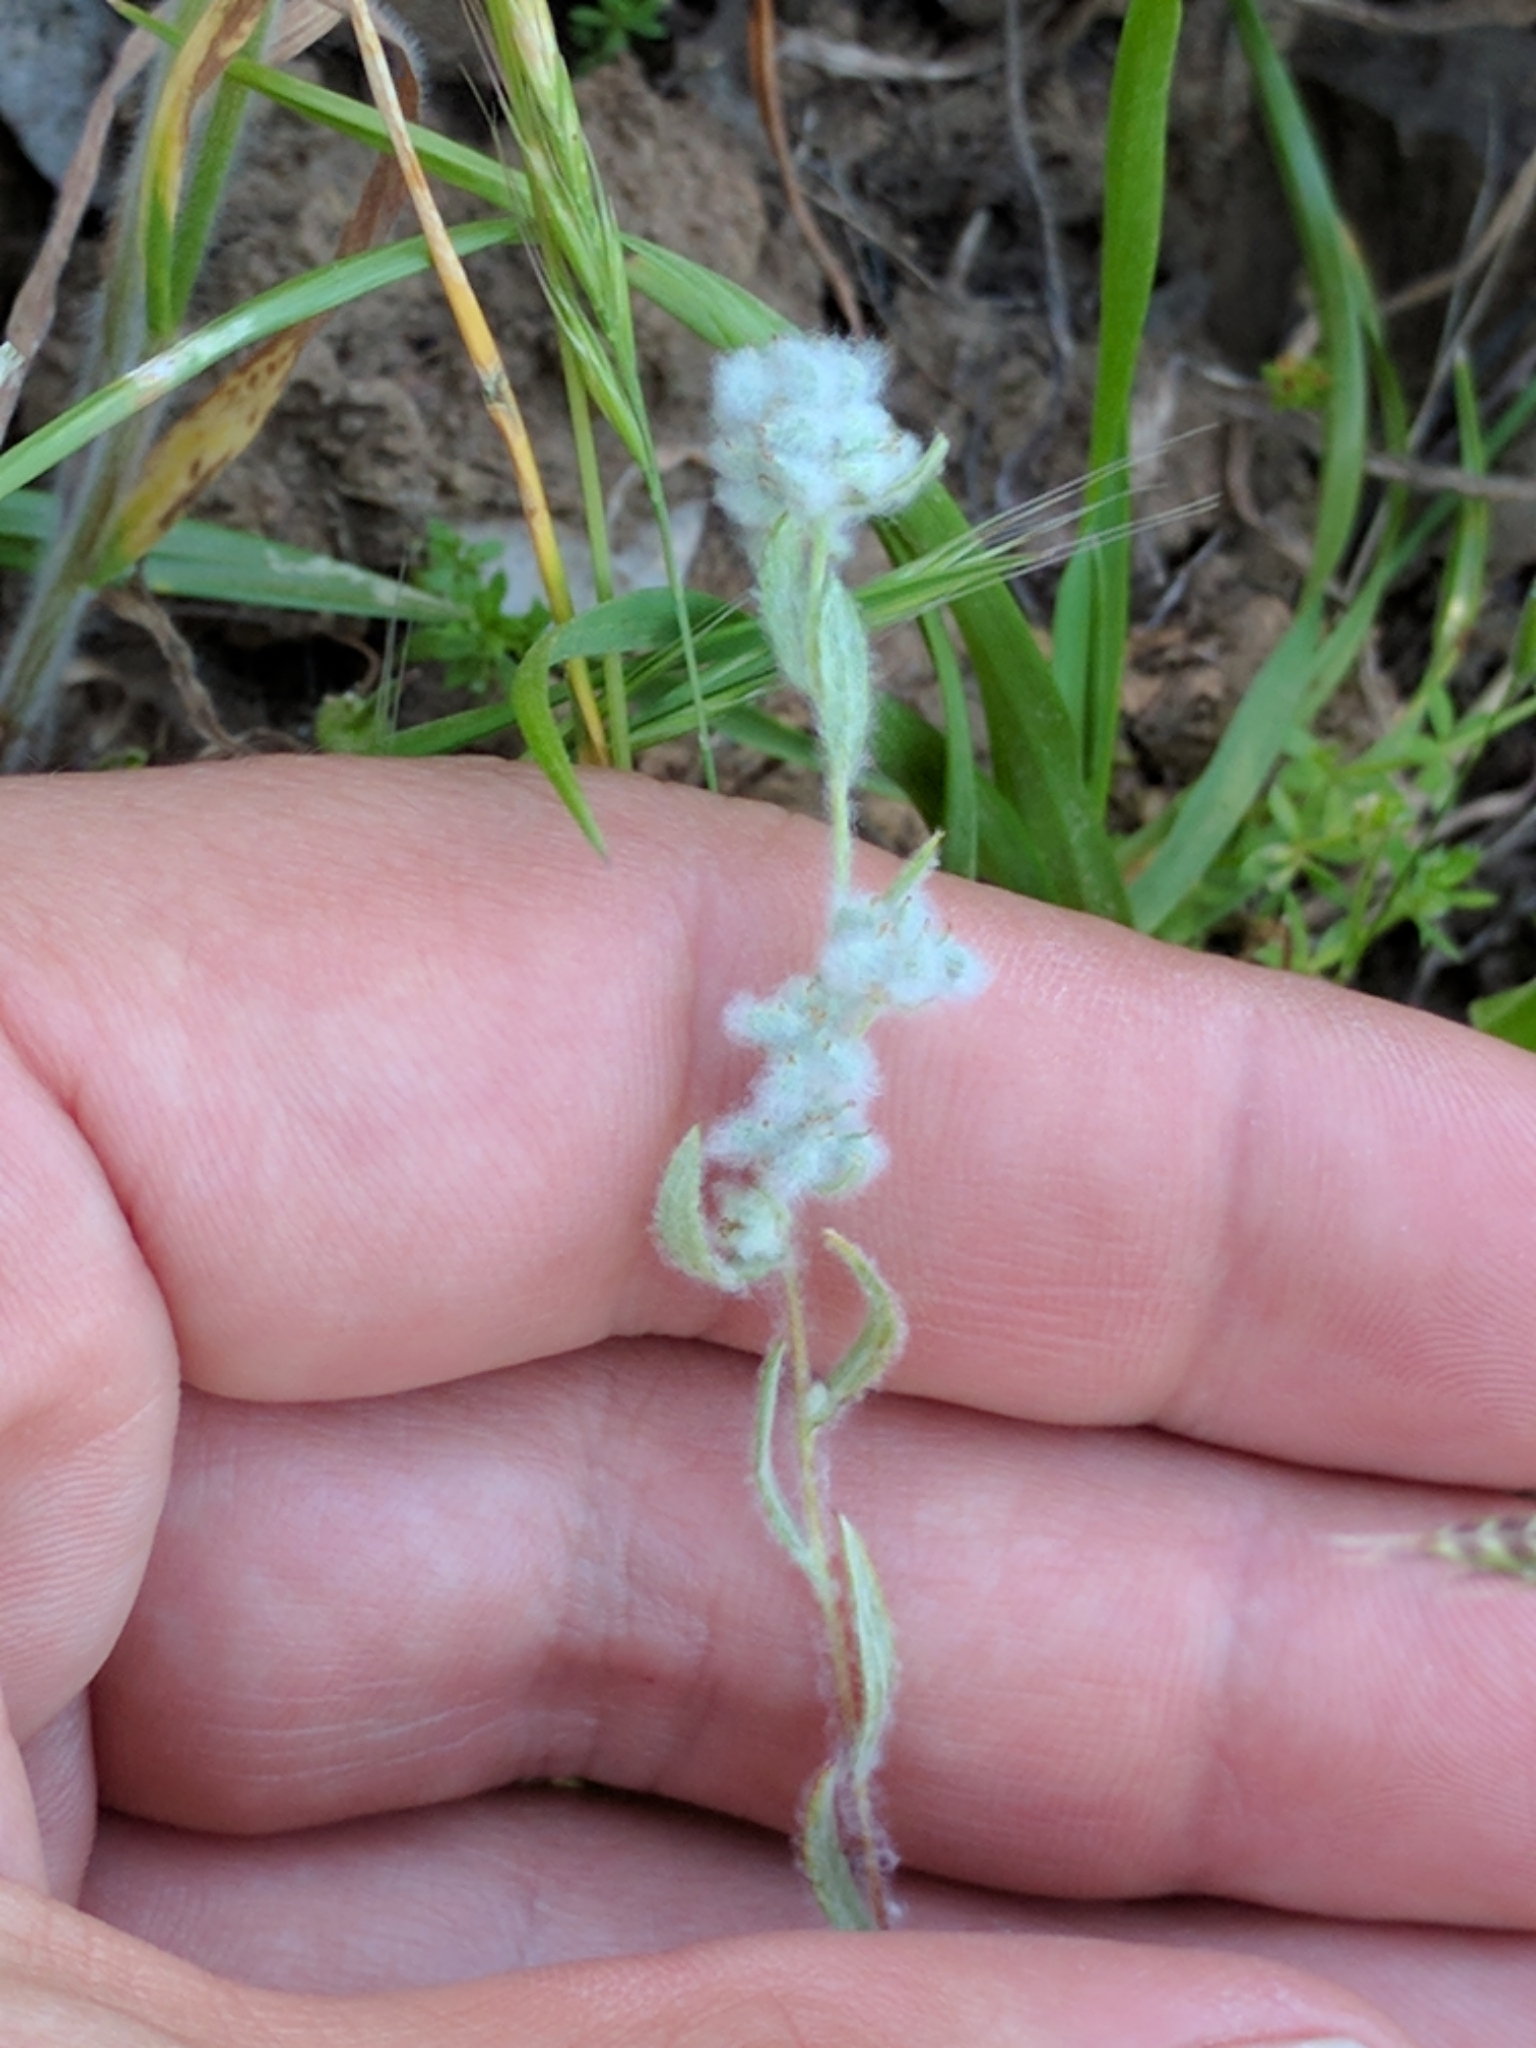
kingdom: Plantae
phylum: Tracheophyta
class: Magnoliopsida
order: Asterales
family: Asteraceae
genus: Bombycilaena
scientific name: Bombycilaena californica
